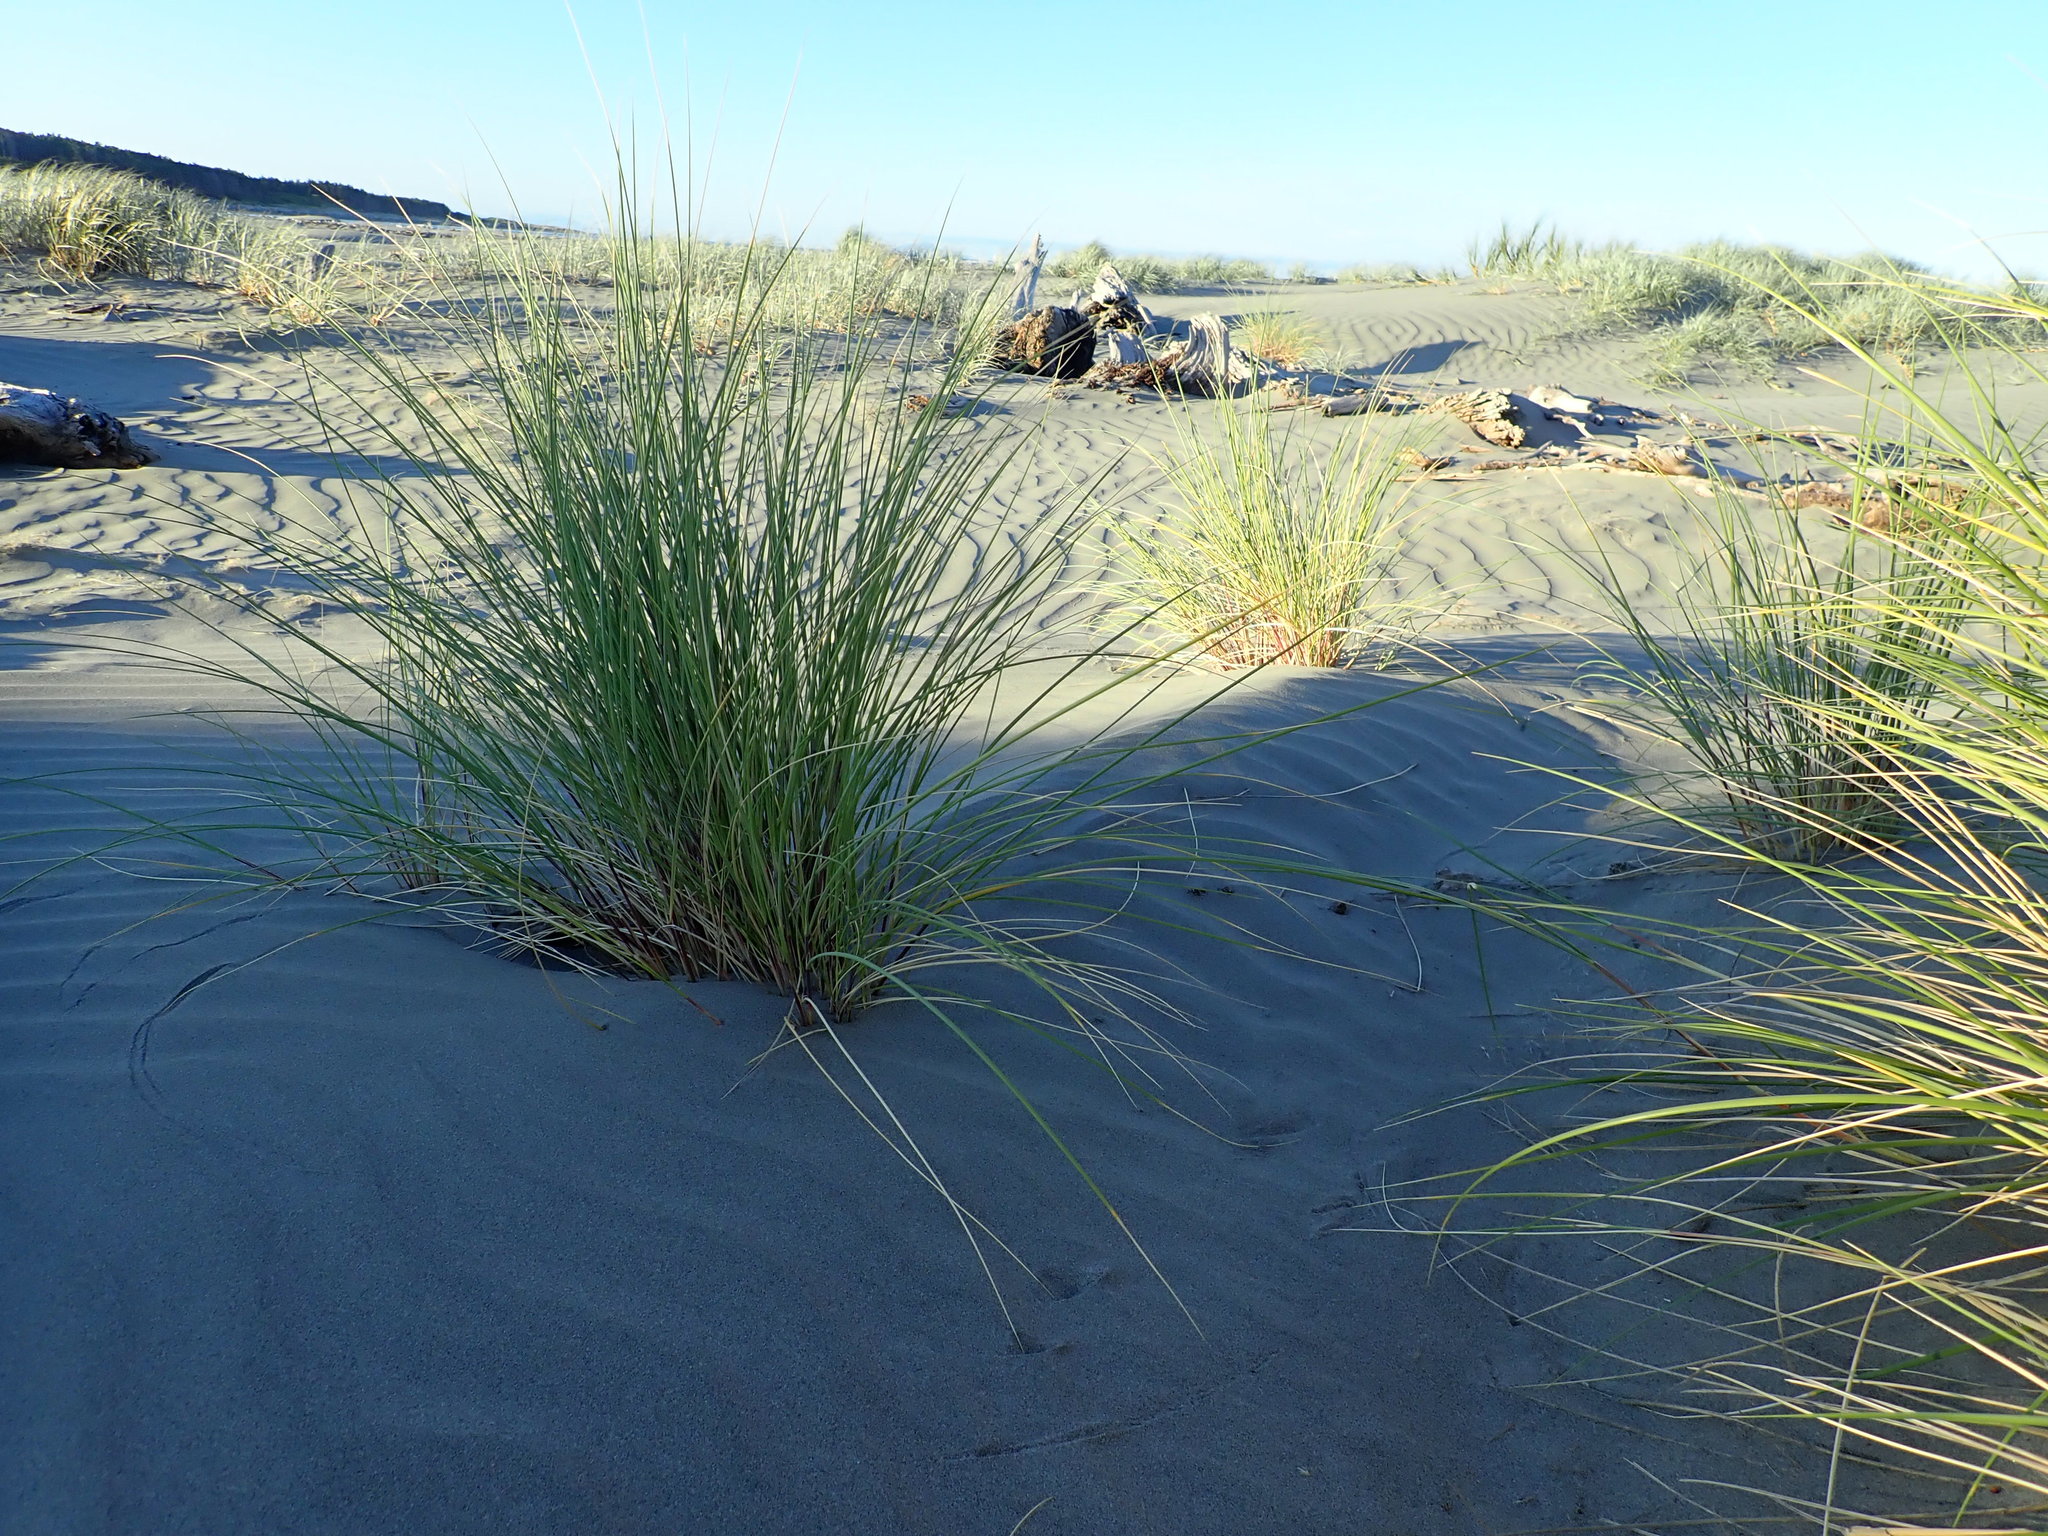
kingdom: Plantae
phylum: Tracheophyta
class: Liliopsida
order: Poales
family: Poaceae
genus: Calamagrostis
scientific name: Calamagrostis arenaria
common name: European beachgrass
